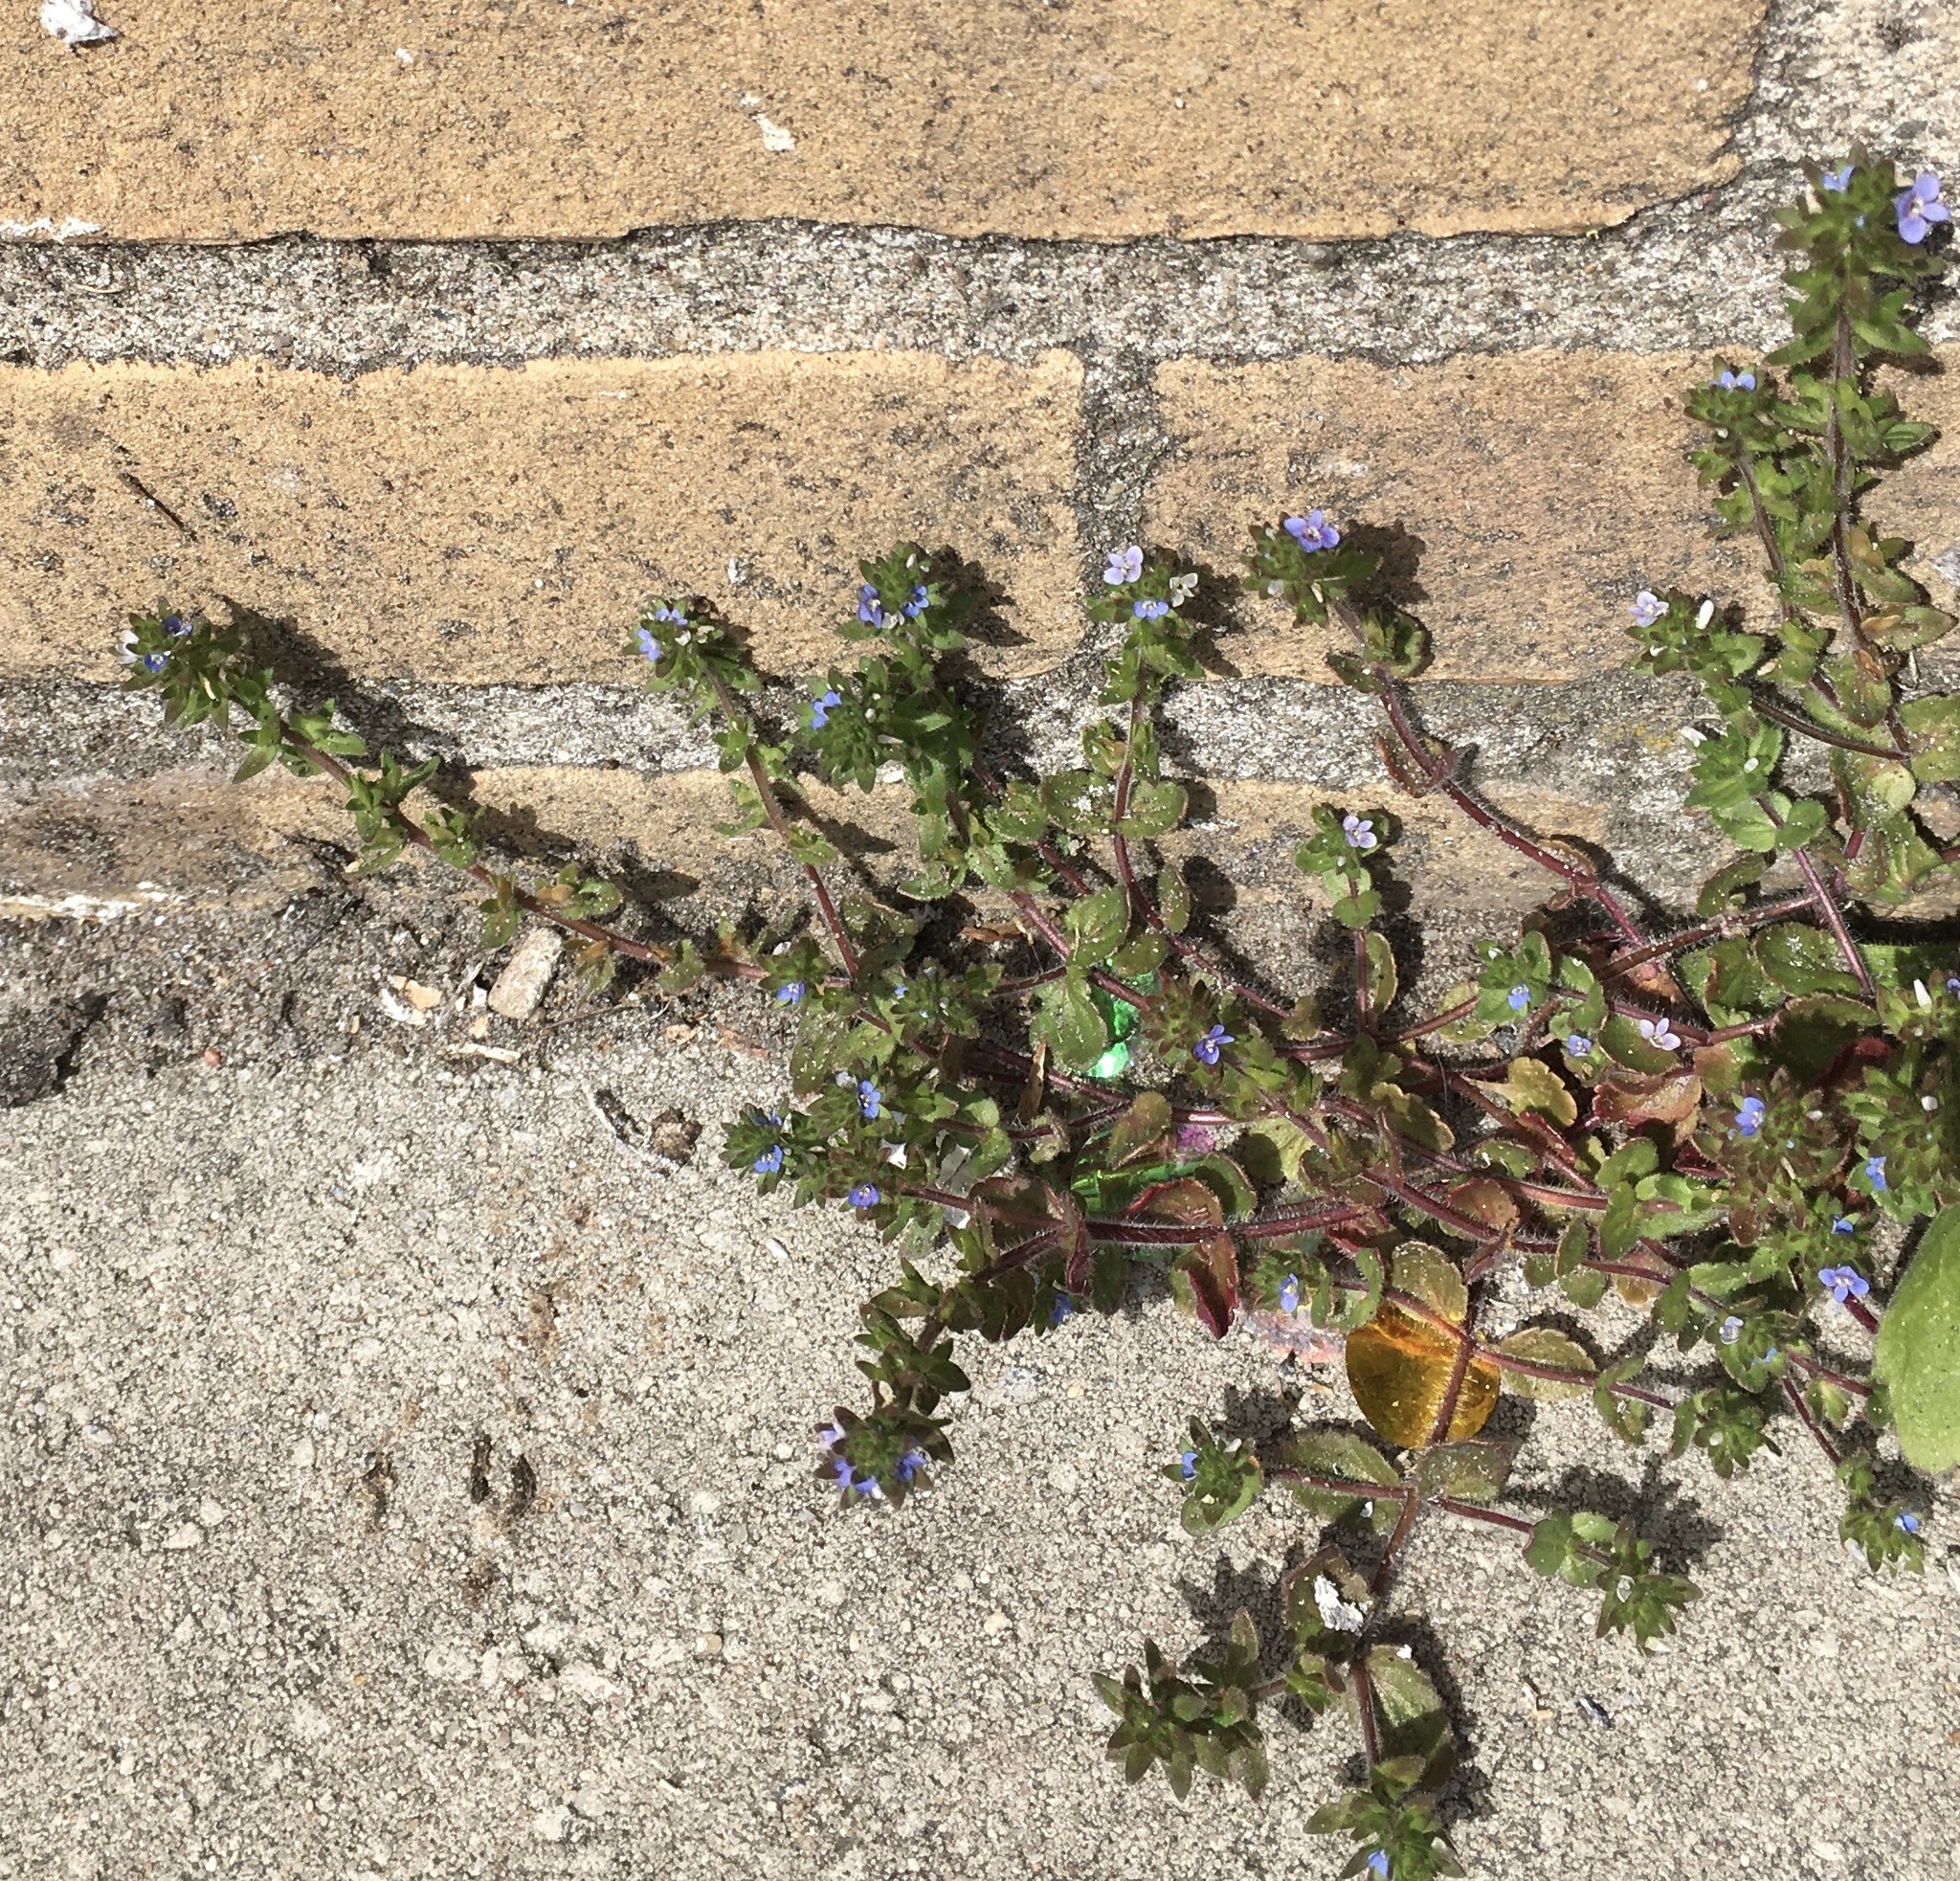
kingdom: Plantae
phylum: Tracheophyta
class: Magnoliopsida
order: Lamiales
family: Plantaginaceae
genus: Veronica
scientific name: Veronica arvensis
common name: Corn speedwell
